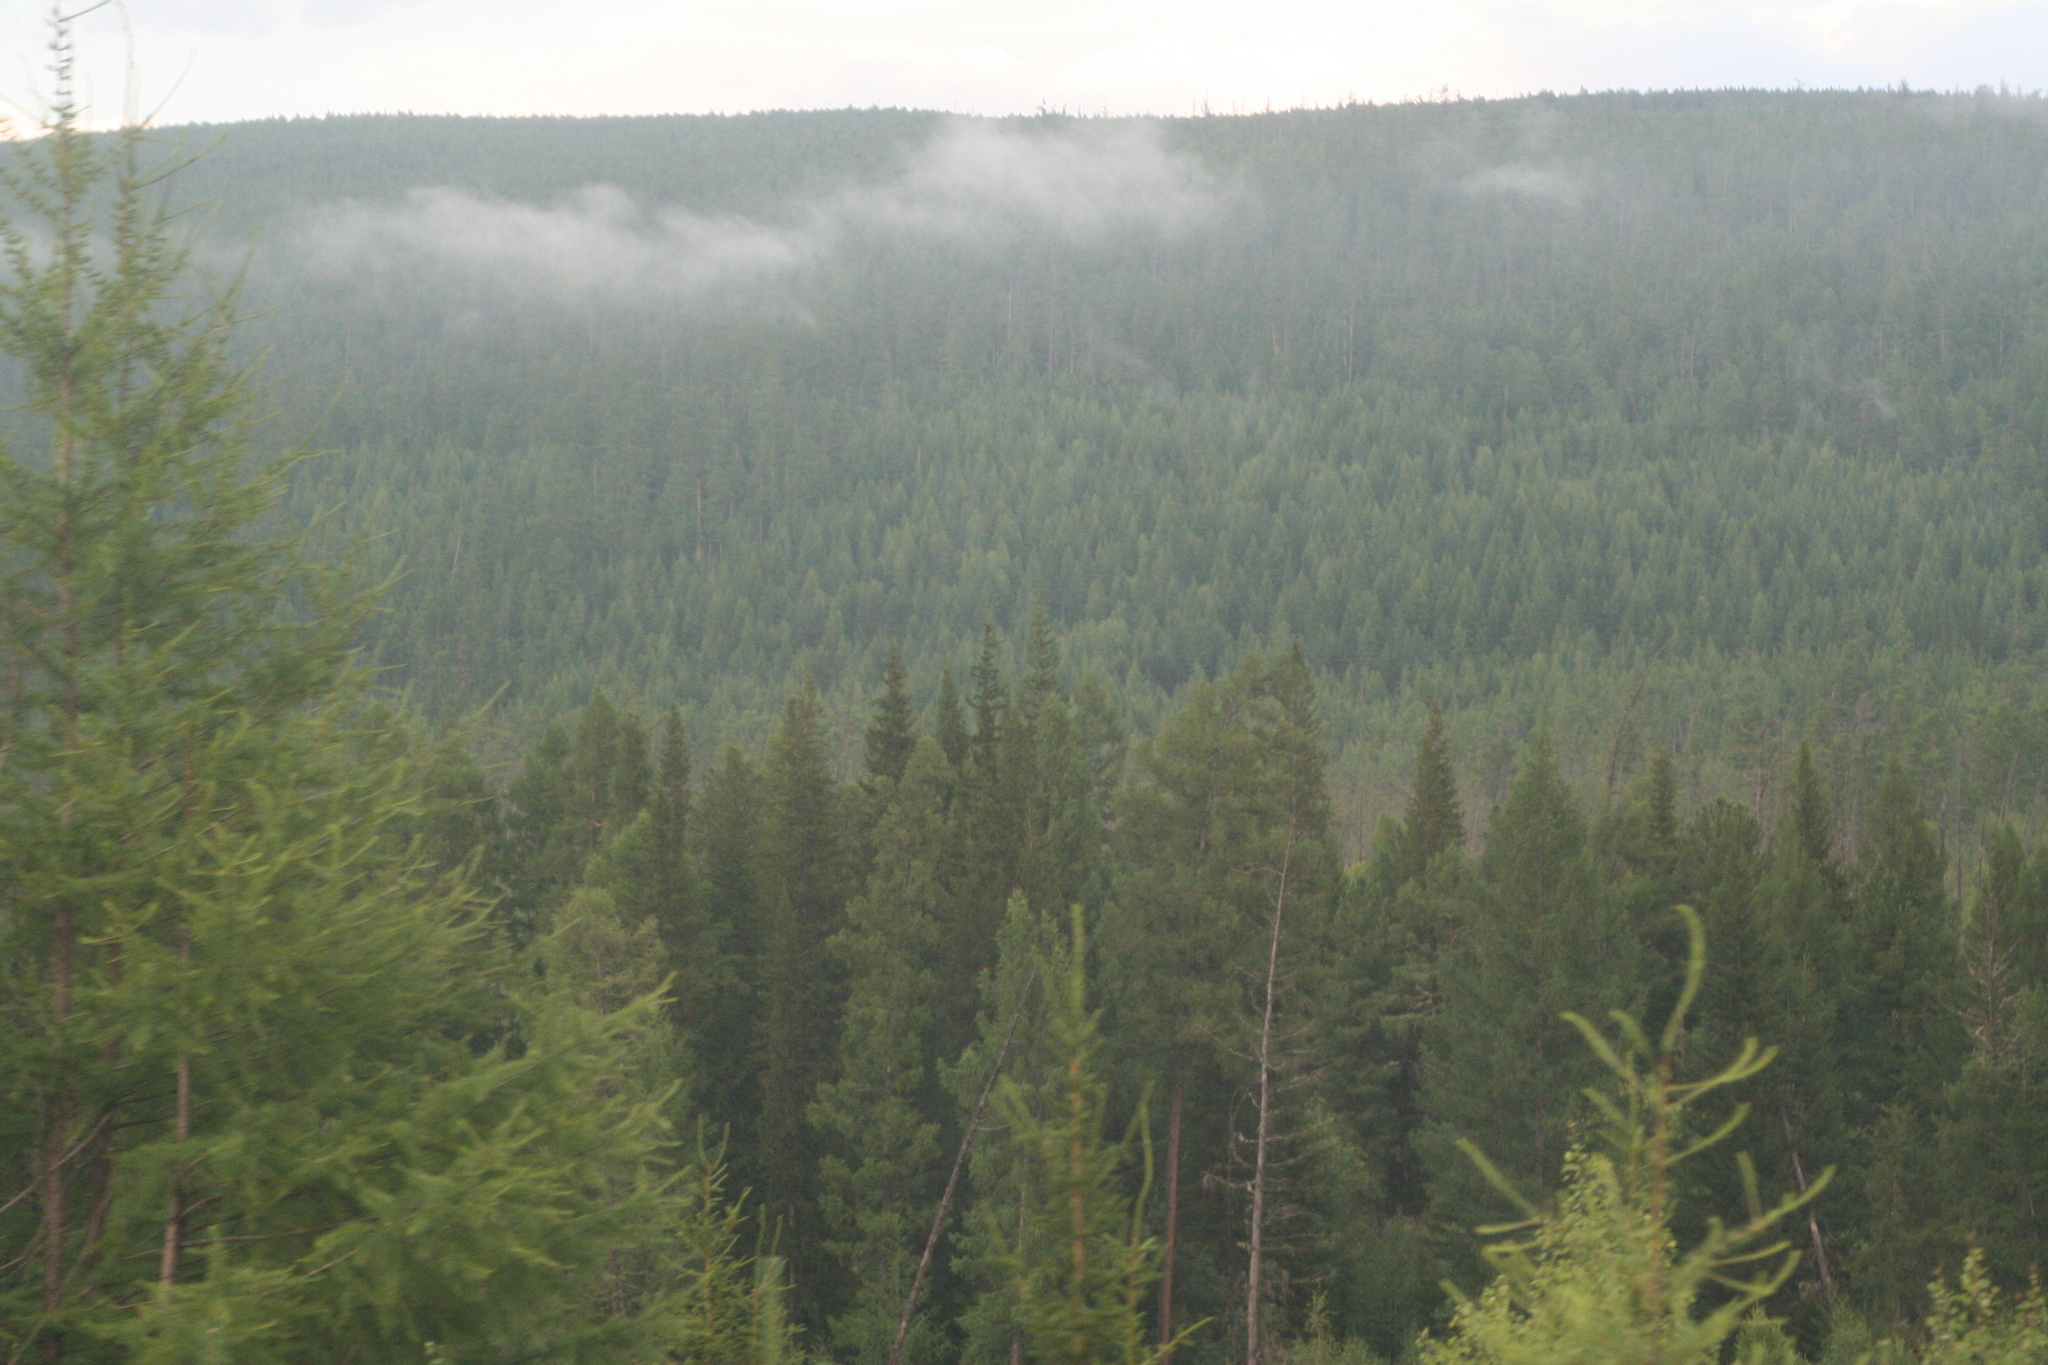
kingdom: Plantae
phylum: Tracheophyta
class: Pinopsida
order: Pinales
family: Pinaceae
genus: Picea
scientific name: Picea obovata
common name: Siberian spruce
